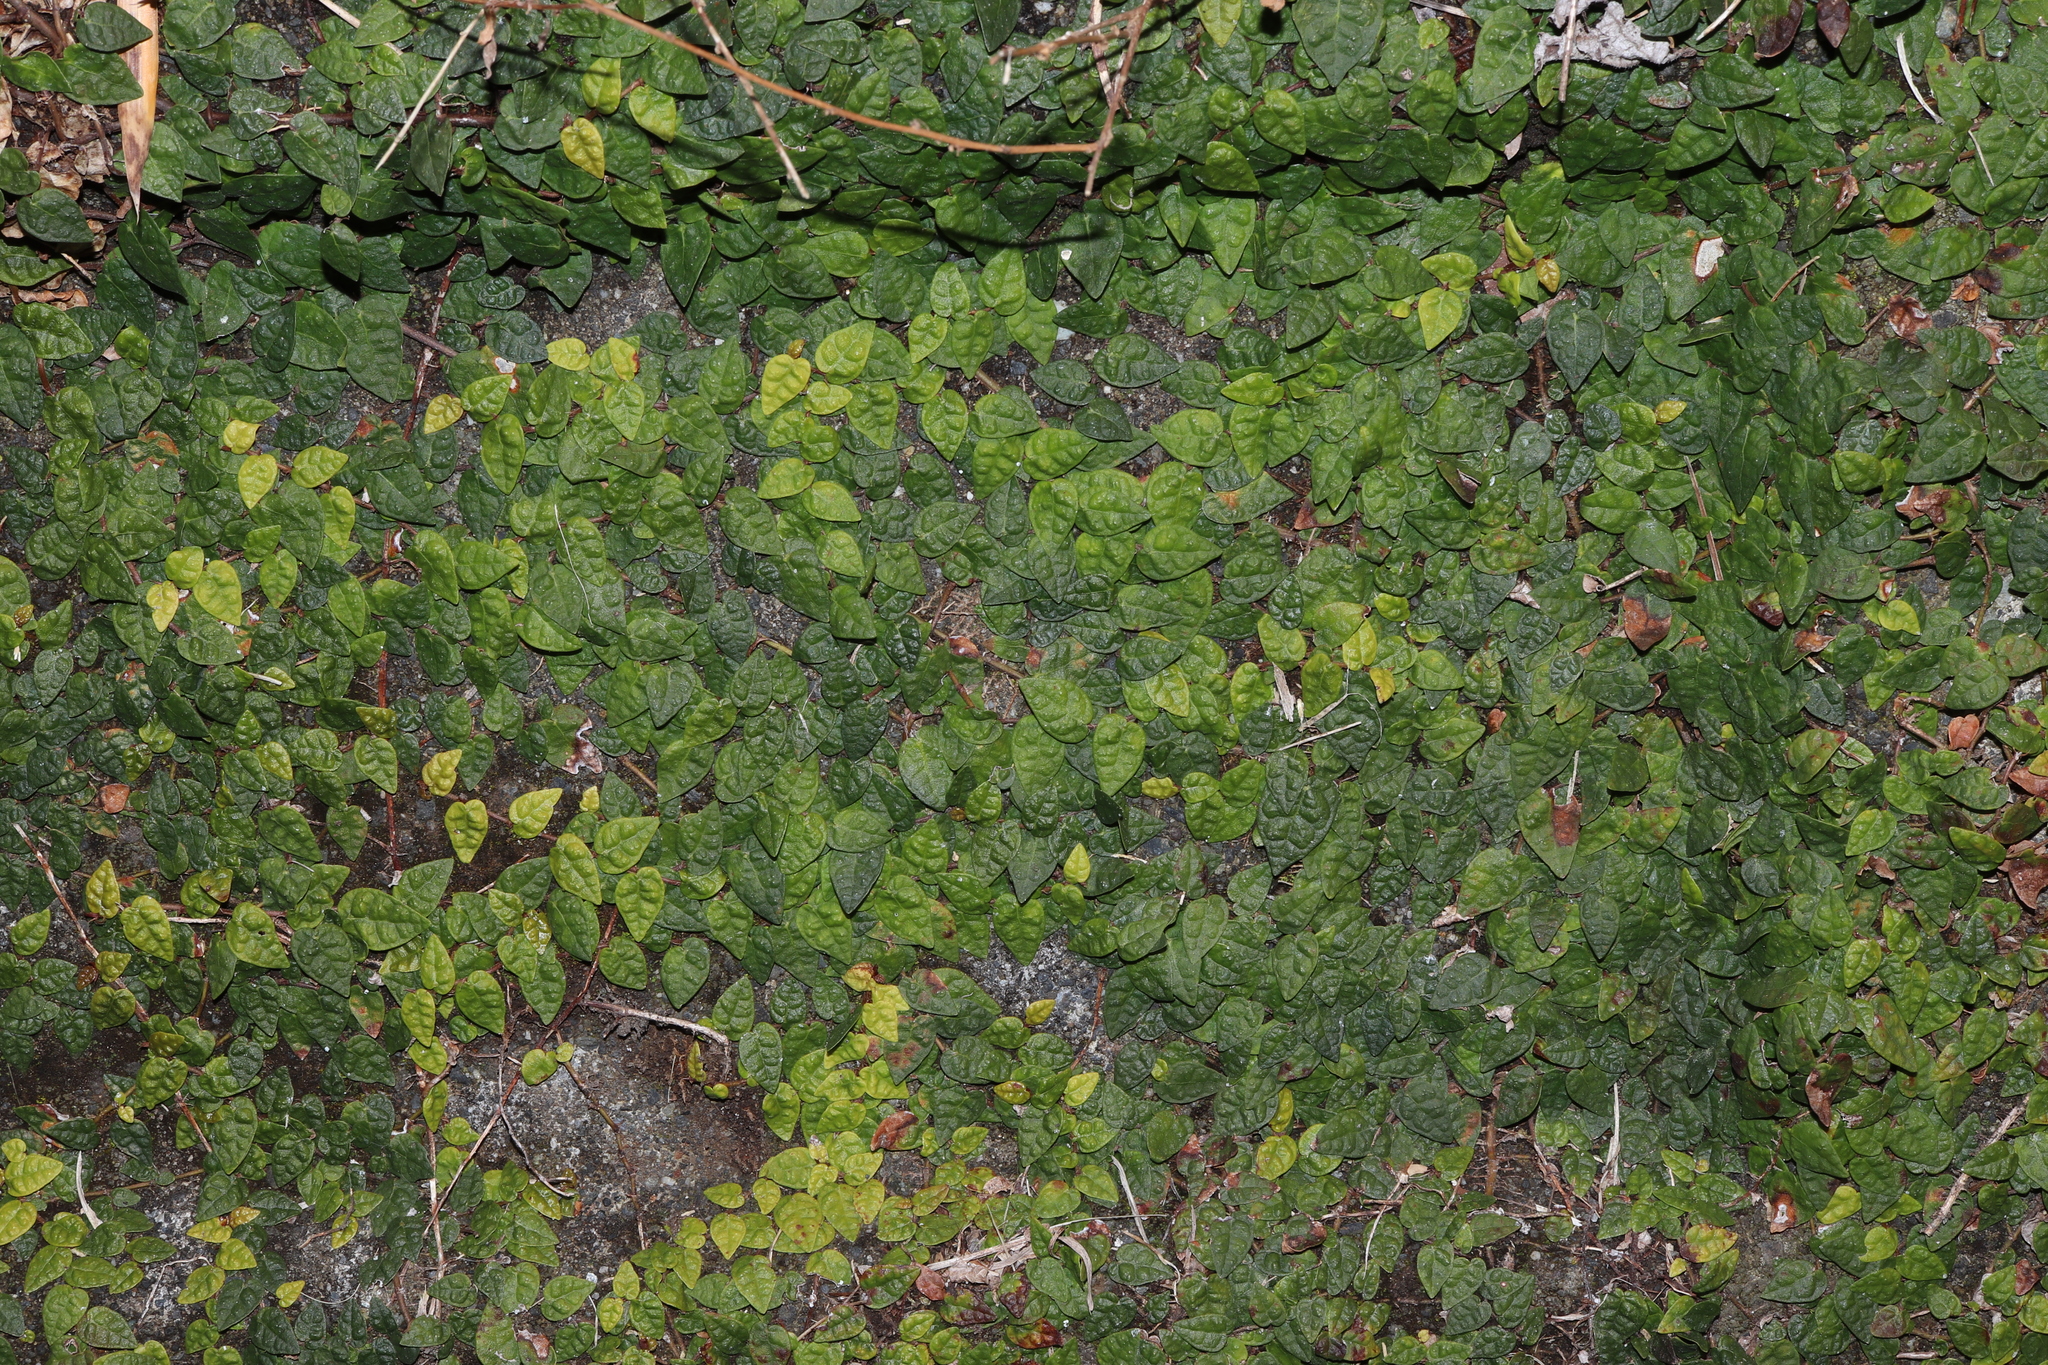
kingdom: Plantae
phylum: Tracheophyta
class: Magnoliopsida
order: Rosales
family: Moraceae
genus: Ficus
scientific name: Ficus sarmentosa
